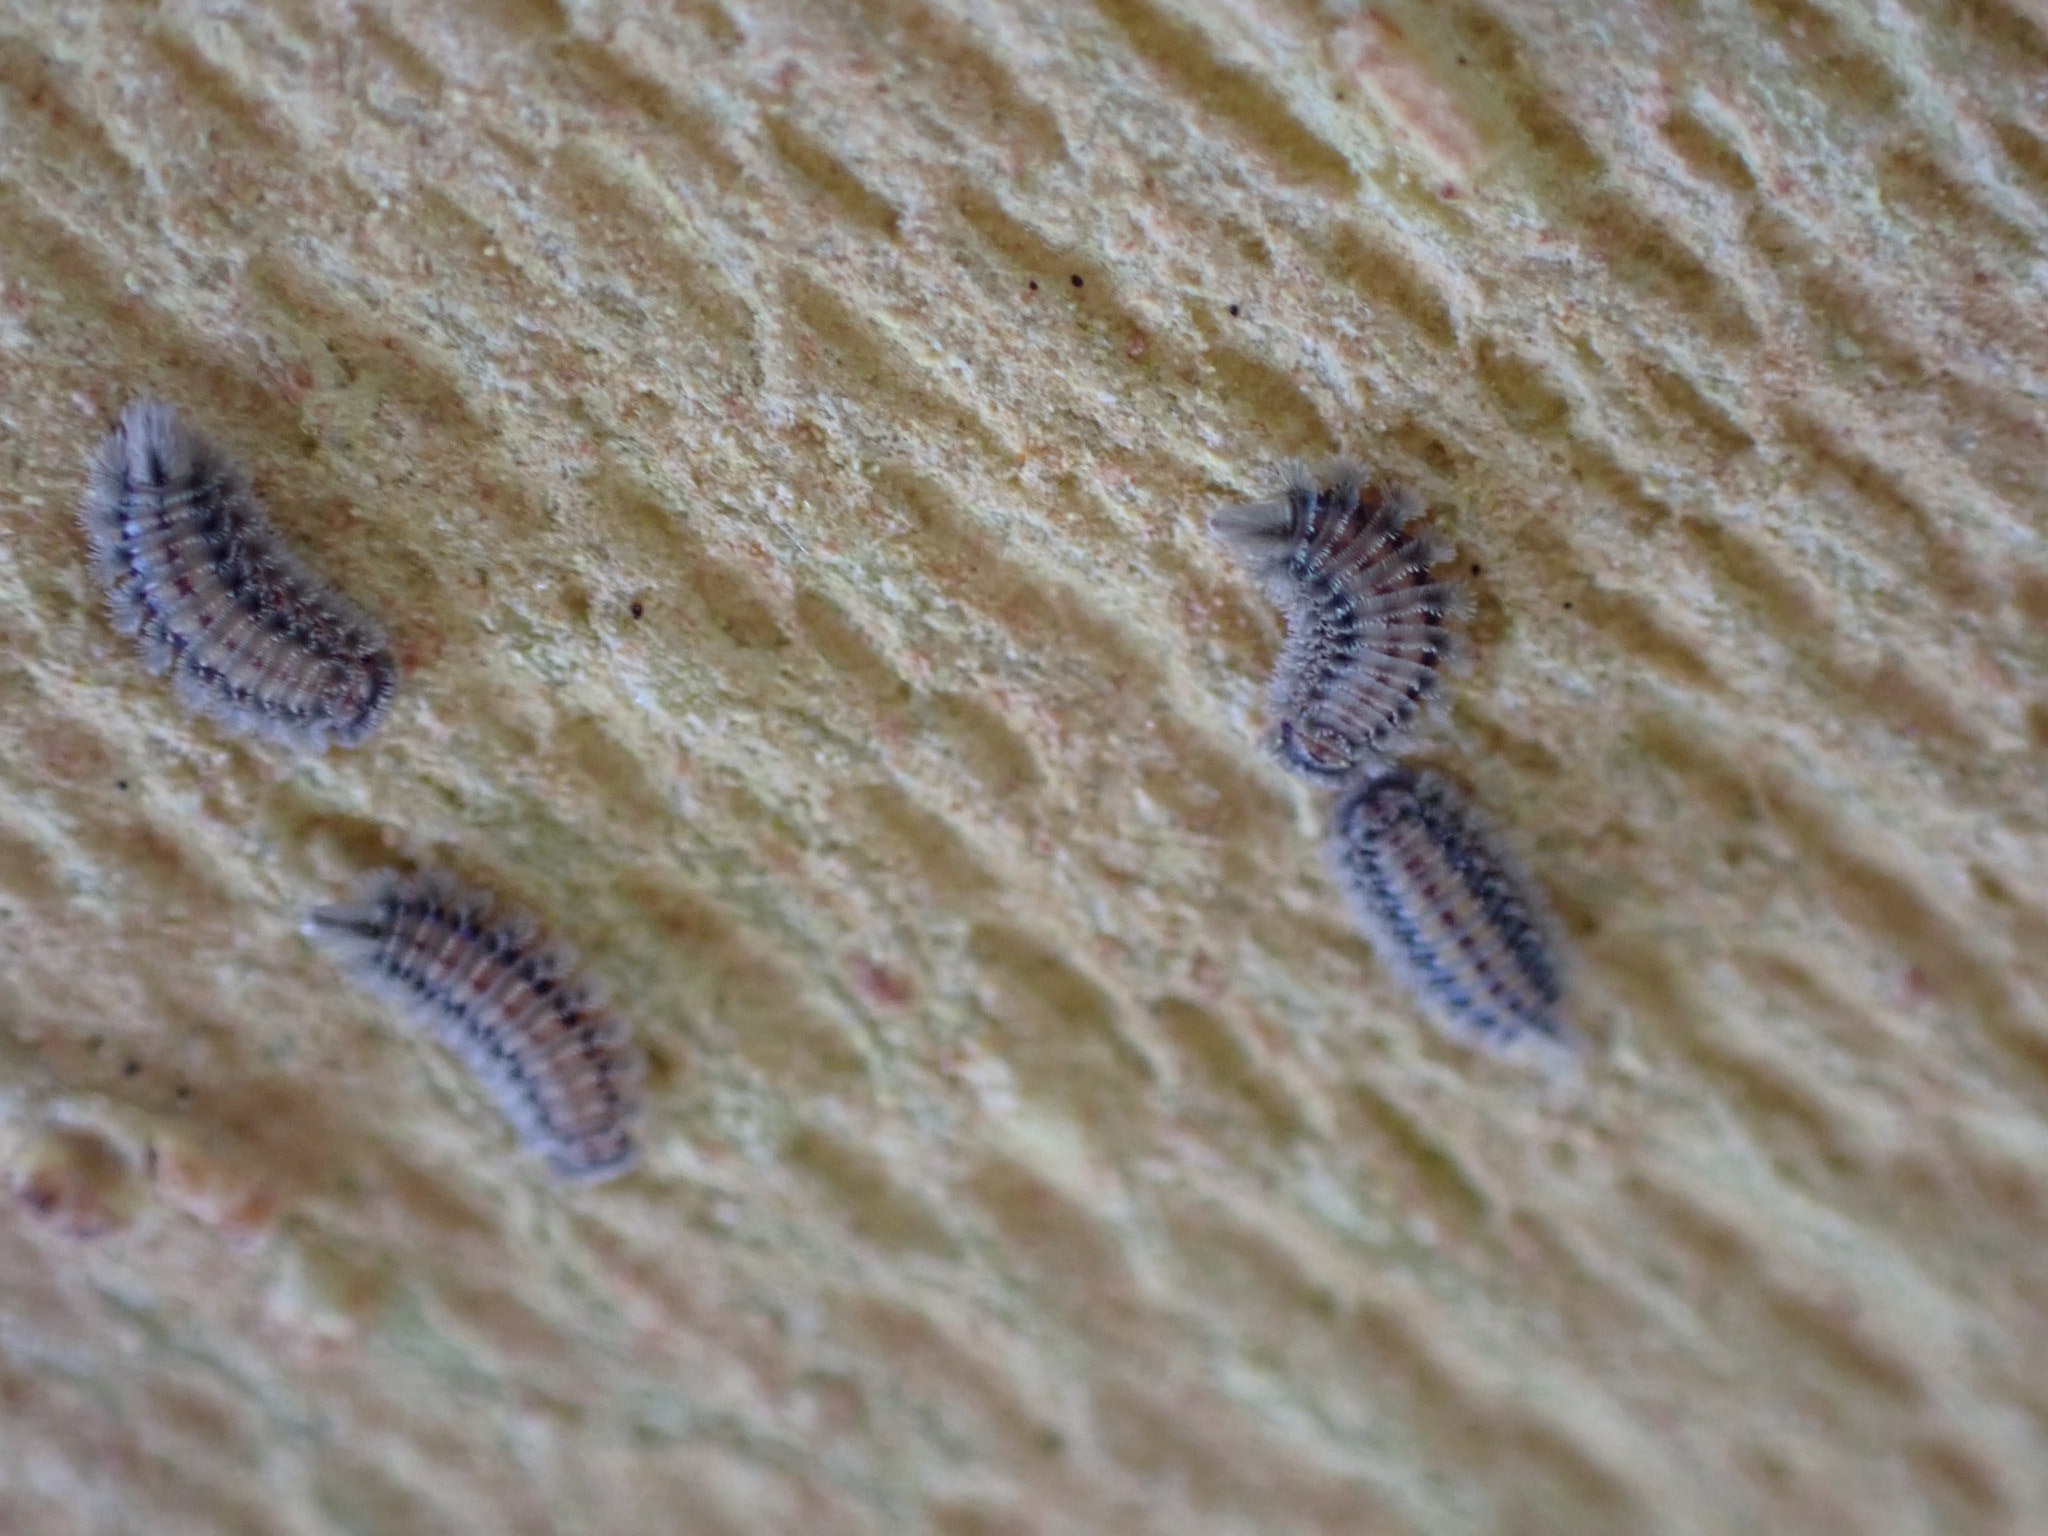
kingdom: Animalia
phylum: Arthropoda
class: Diplopoda
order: Polyxenida
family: Polyxenidae
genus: Polyxenus
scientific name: Polyxenus lagurus
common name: Bristly millipede
